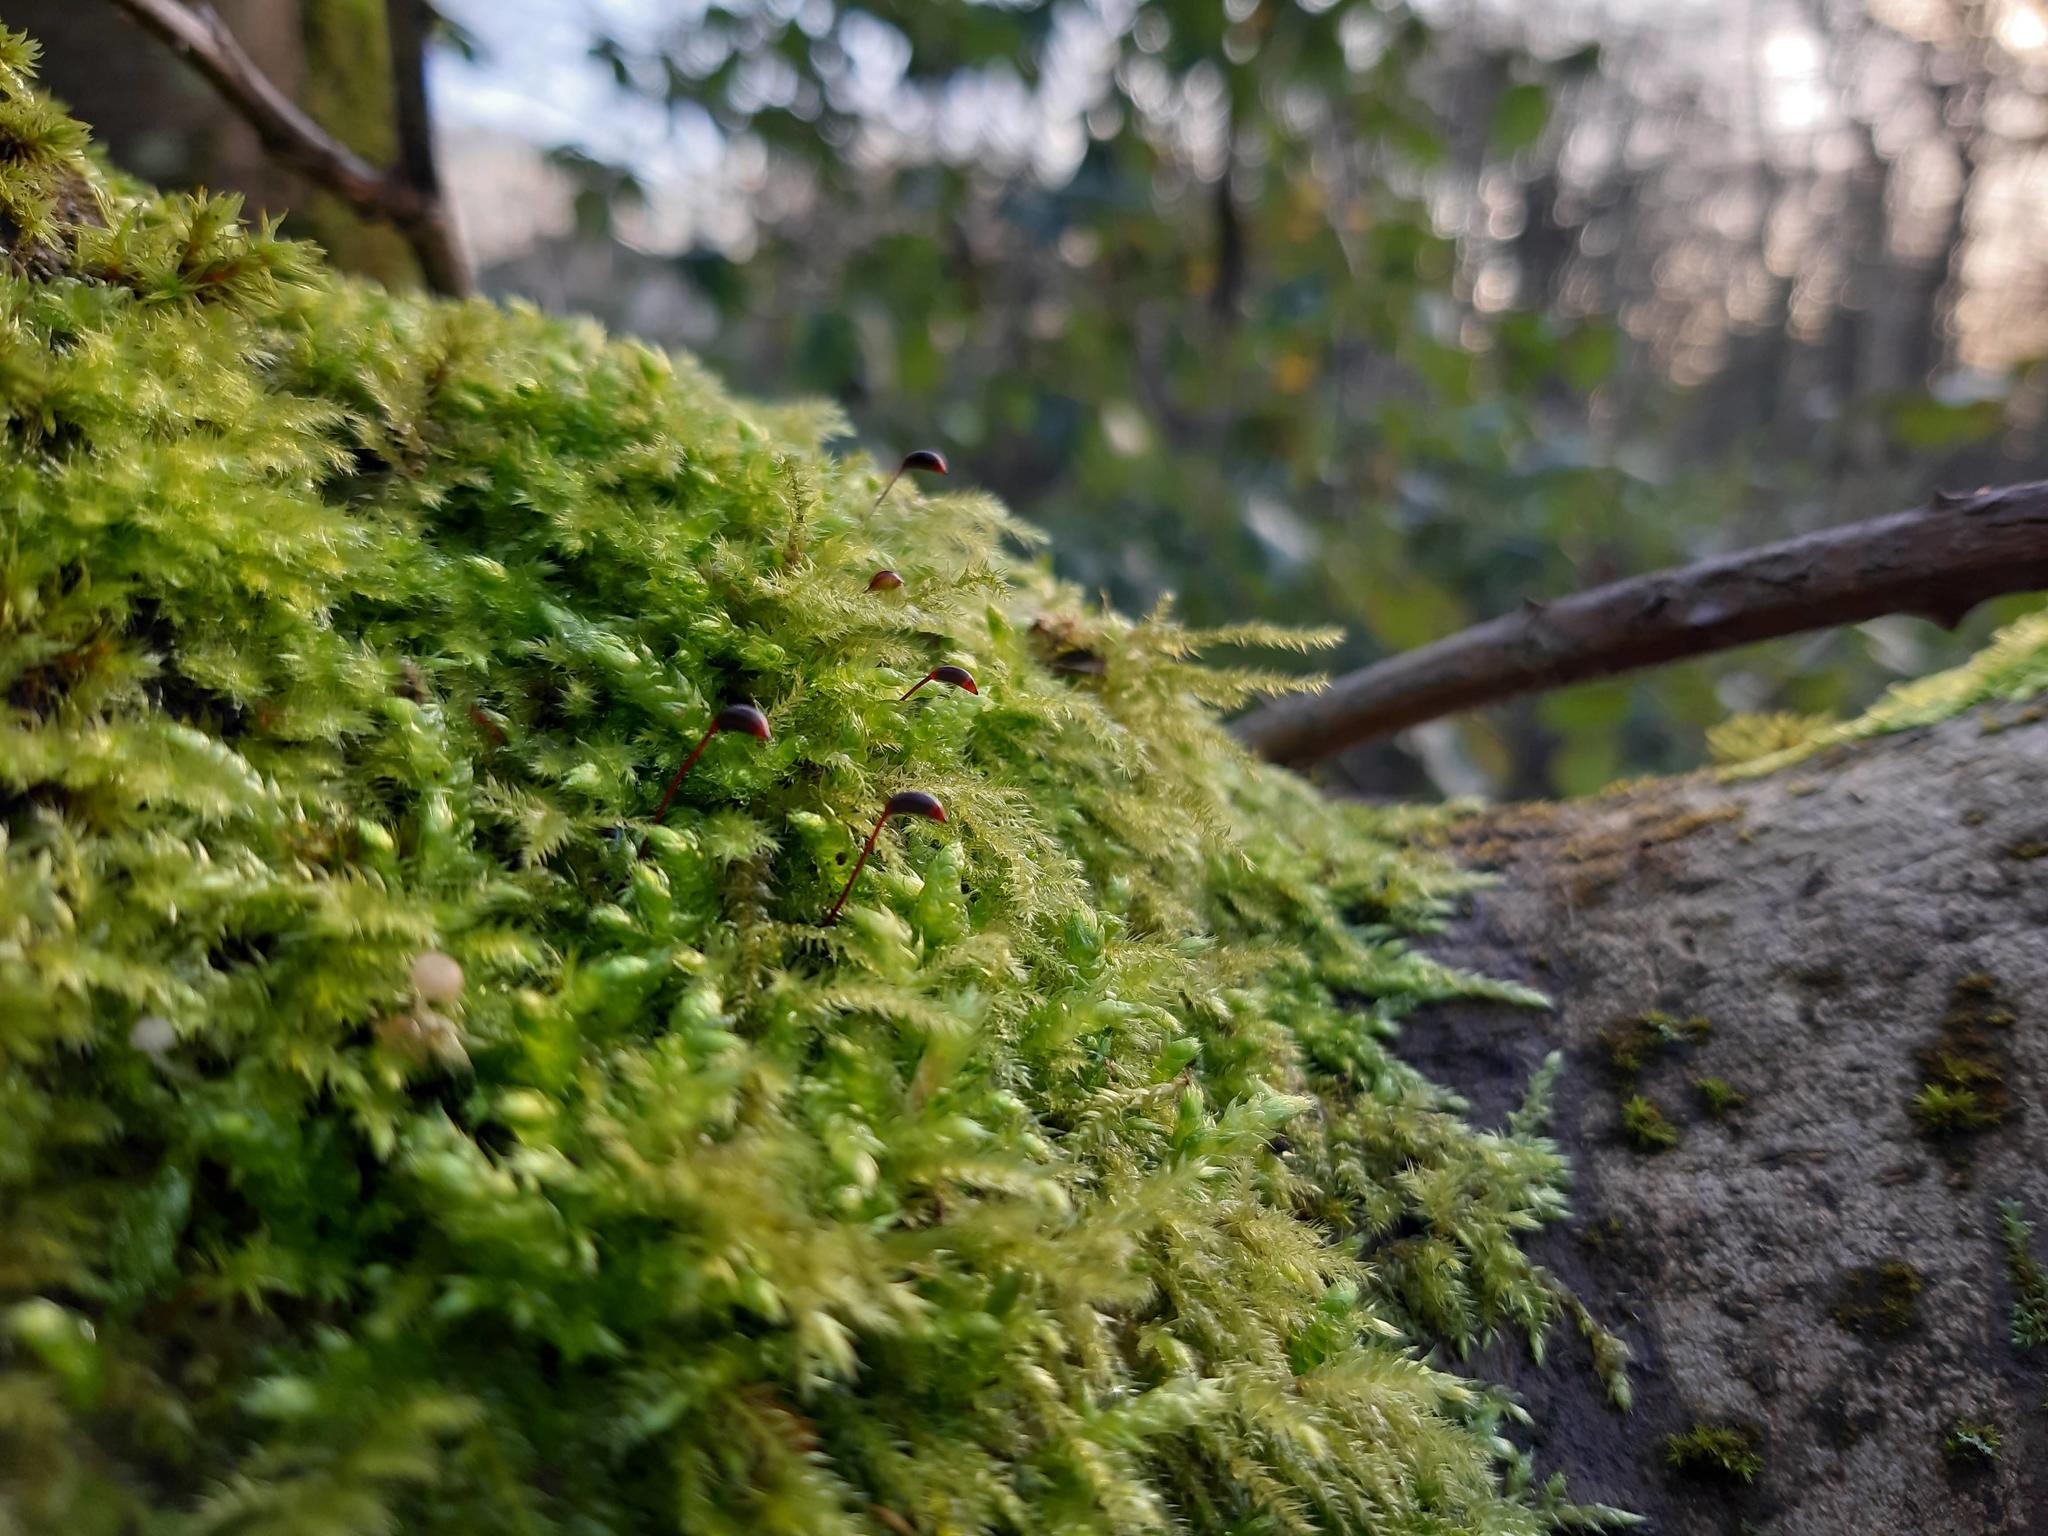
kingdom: Plantae
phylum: Bryophyta
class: Bryopsida
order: Hypnales
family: Brachytheciaceae
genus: Brachythecium
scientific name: Brachythecium rutabulum
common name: Rough-stalked feather-moss
